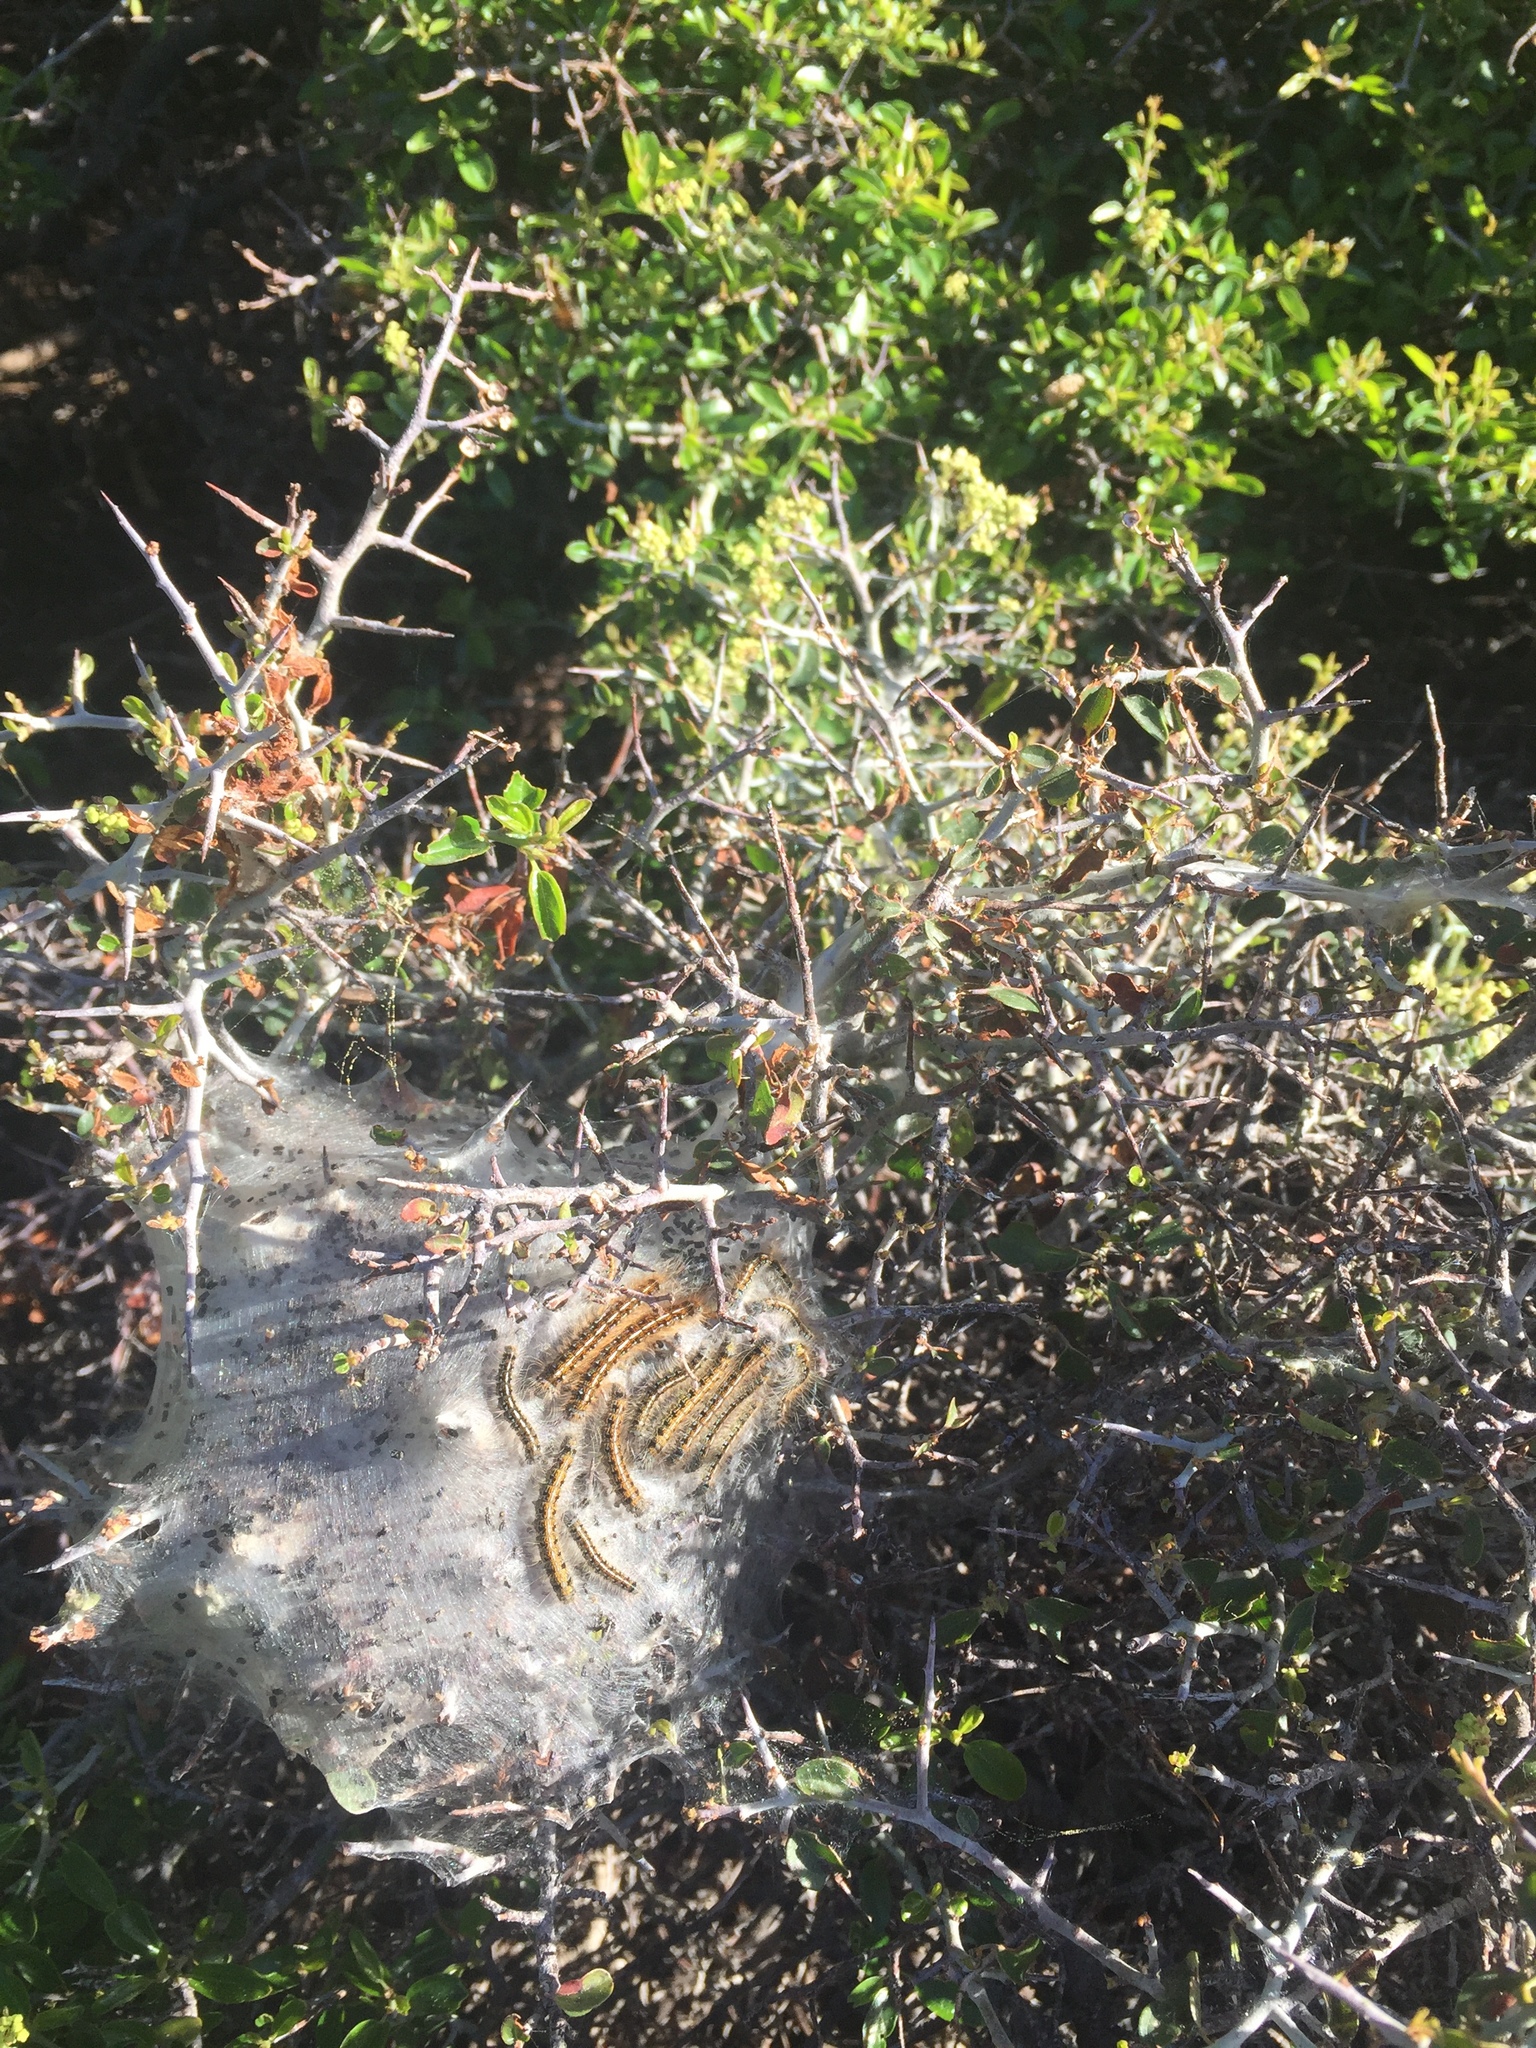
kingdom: Animalia
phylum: Arthropoda
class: Insecta
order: Lepidoptera
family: Lasiocampidae
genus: Malacosoma
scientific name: Malacosoma californica
